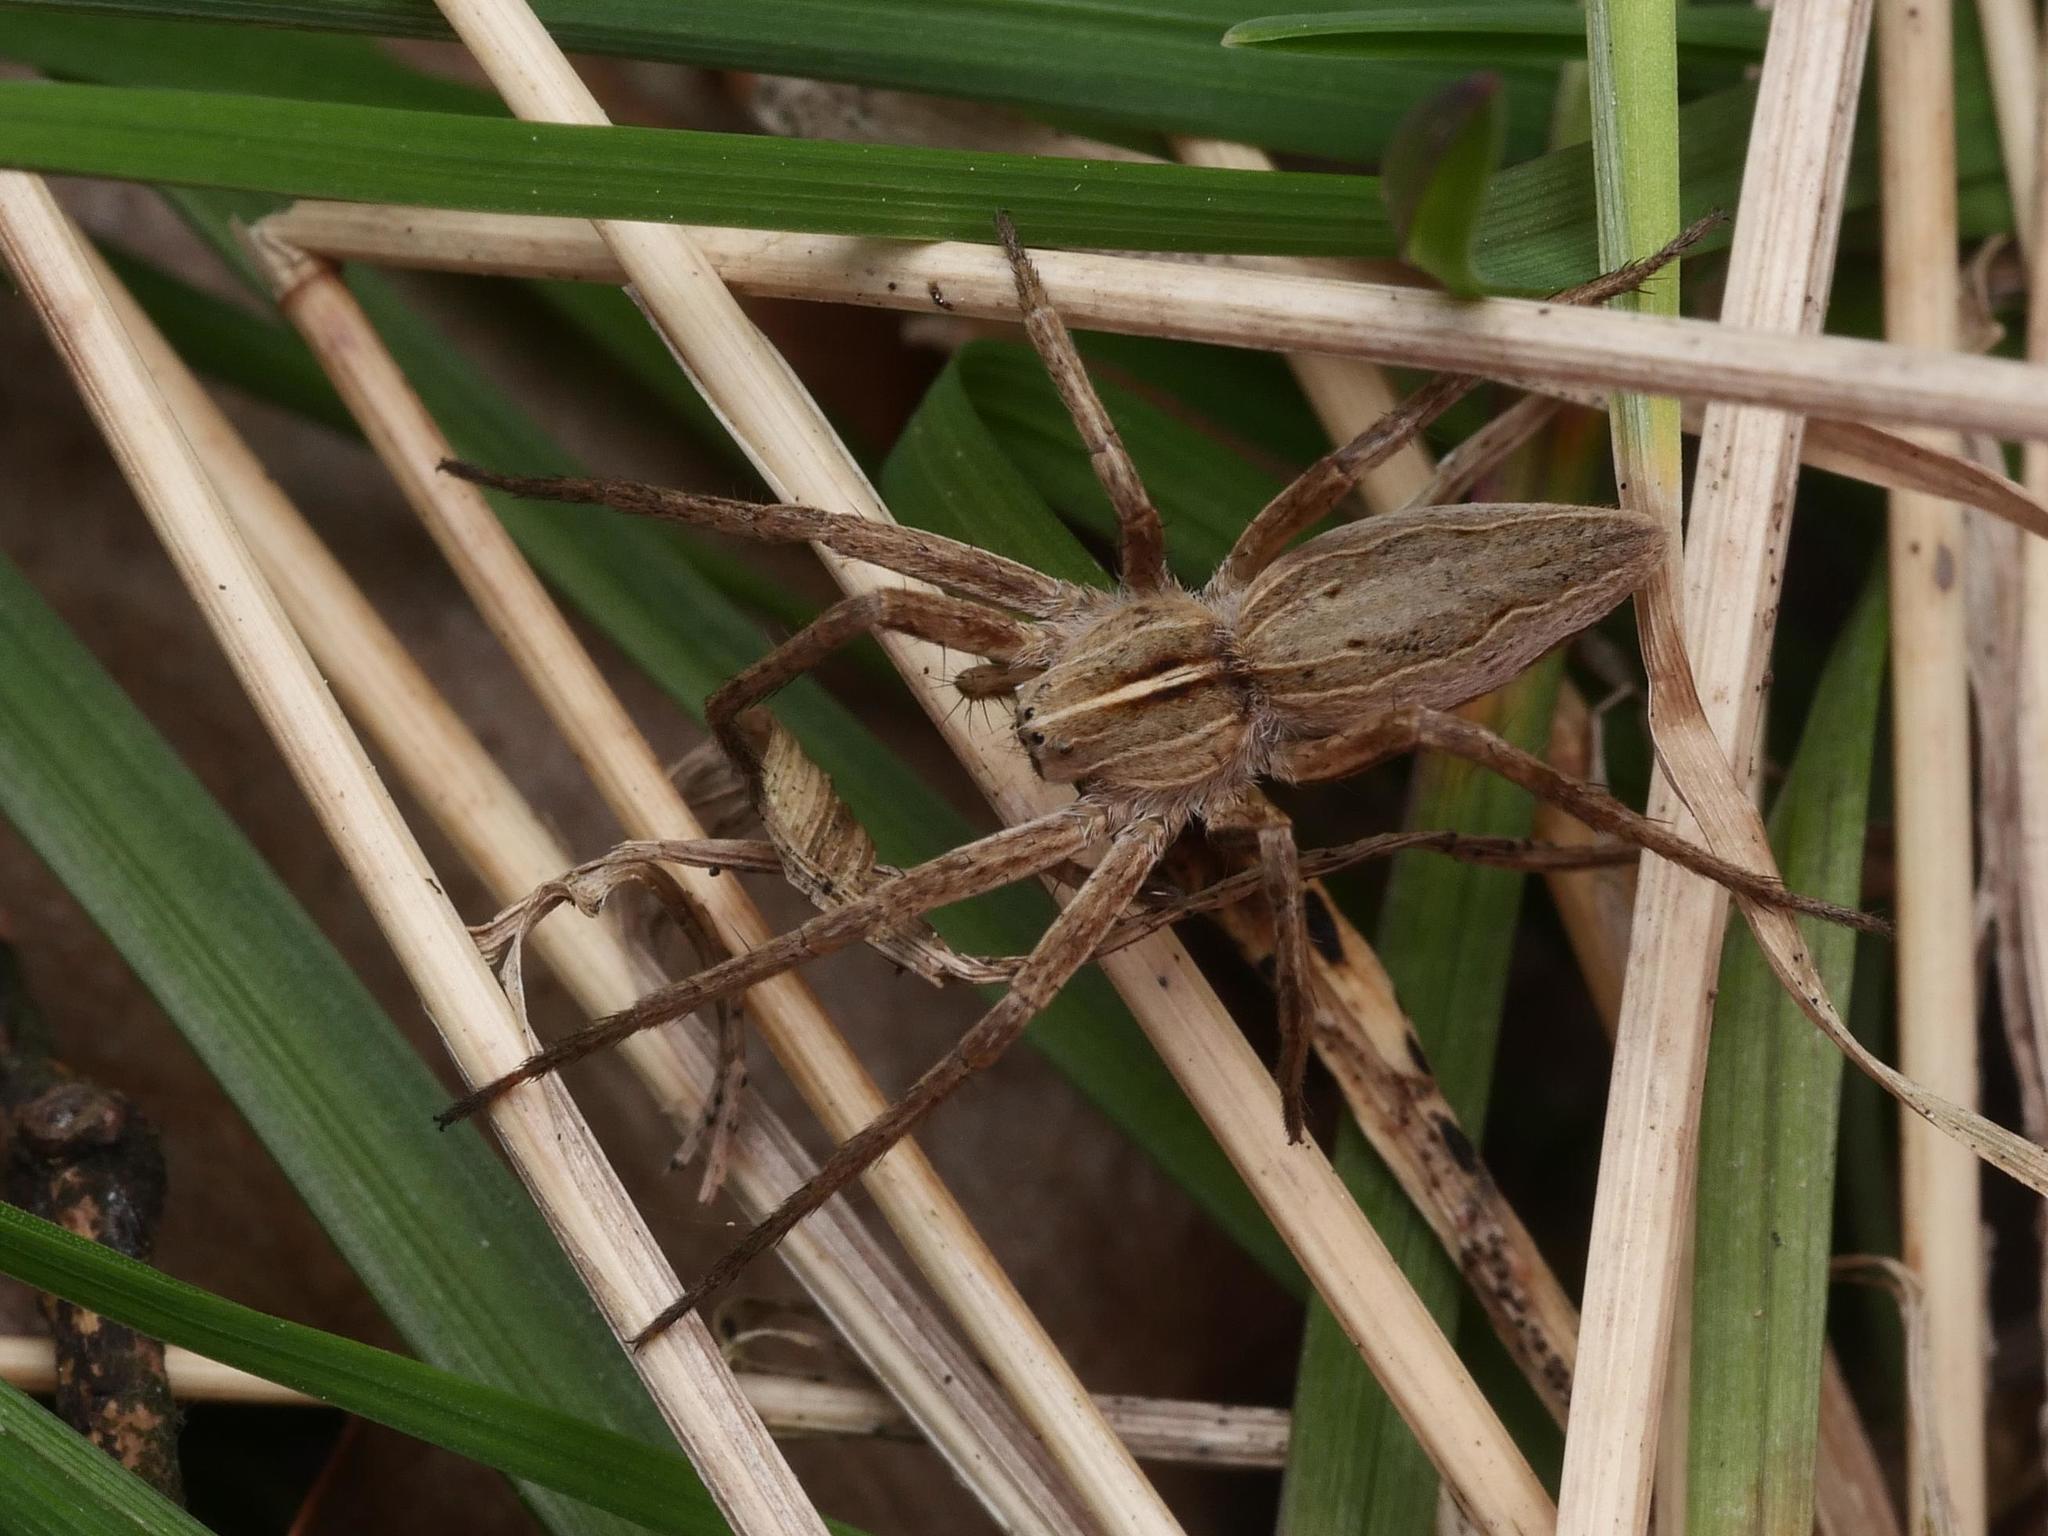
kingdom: Animalia
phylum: Arthropoda
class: Arachnida
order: Araneae
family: Pisauridae
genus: Pisaura
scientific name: Pisaura mirabilis
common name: Tent spider
